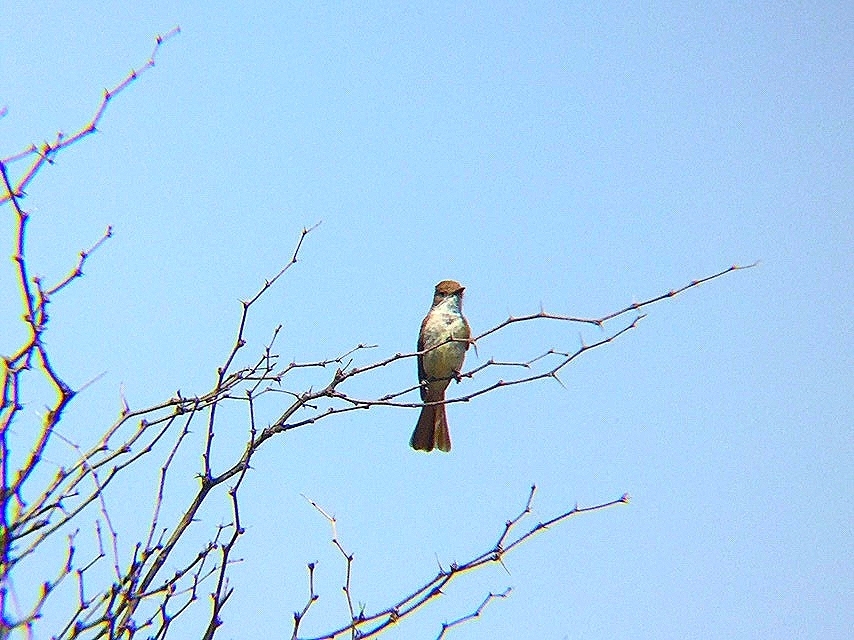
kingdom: Animalia
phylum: Chordata
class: Aves
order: Passeriformes
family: Tyrannidae
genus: Myiarchus
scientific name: Myiarchus cinerascens
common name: Ash-throated flycatcher
